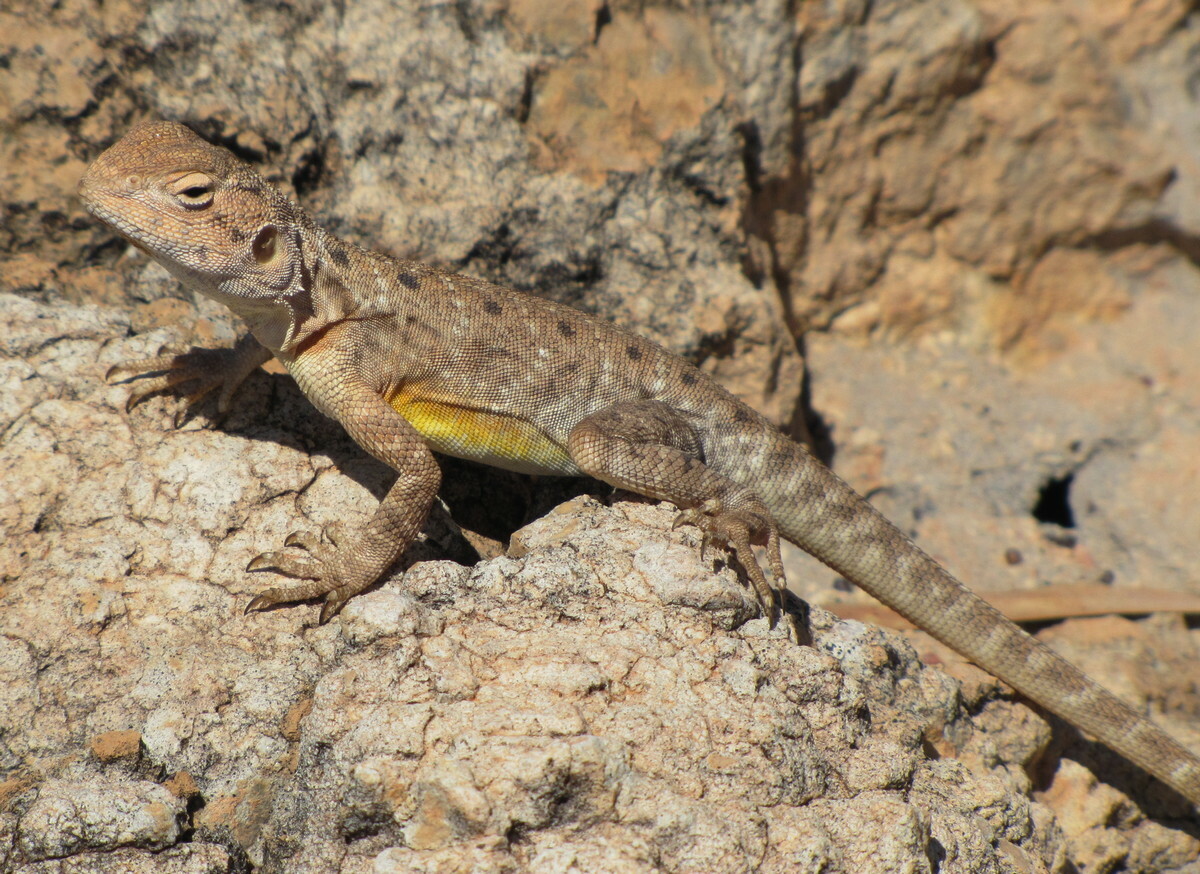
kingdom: Animalia
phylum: Chordata
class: Squamata
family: Agamidae
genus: Ctenophorus
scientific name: Ctenophorus slateri
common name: Slater’s dragon
